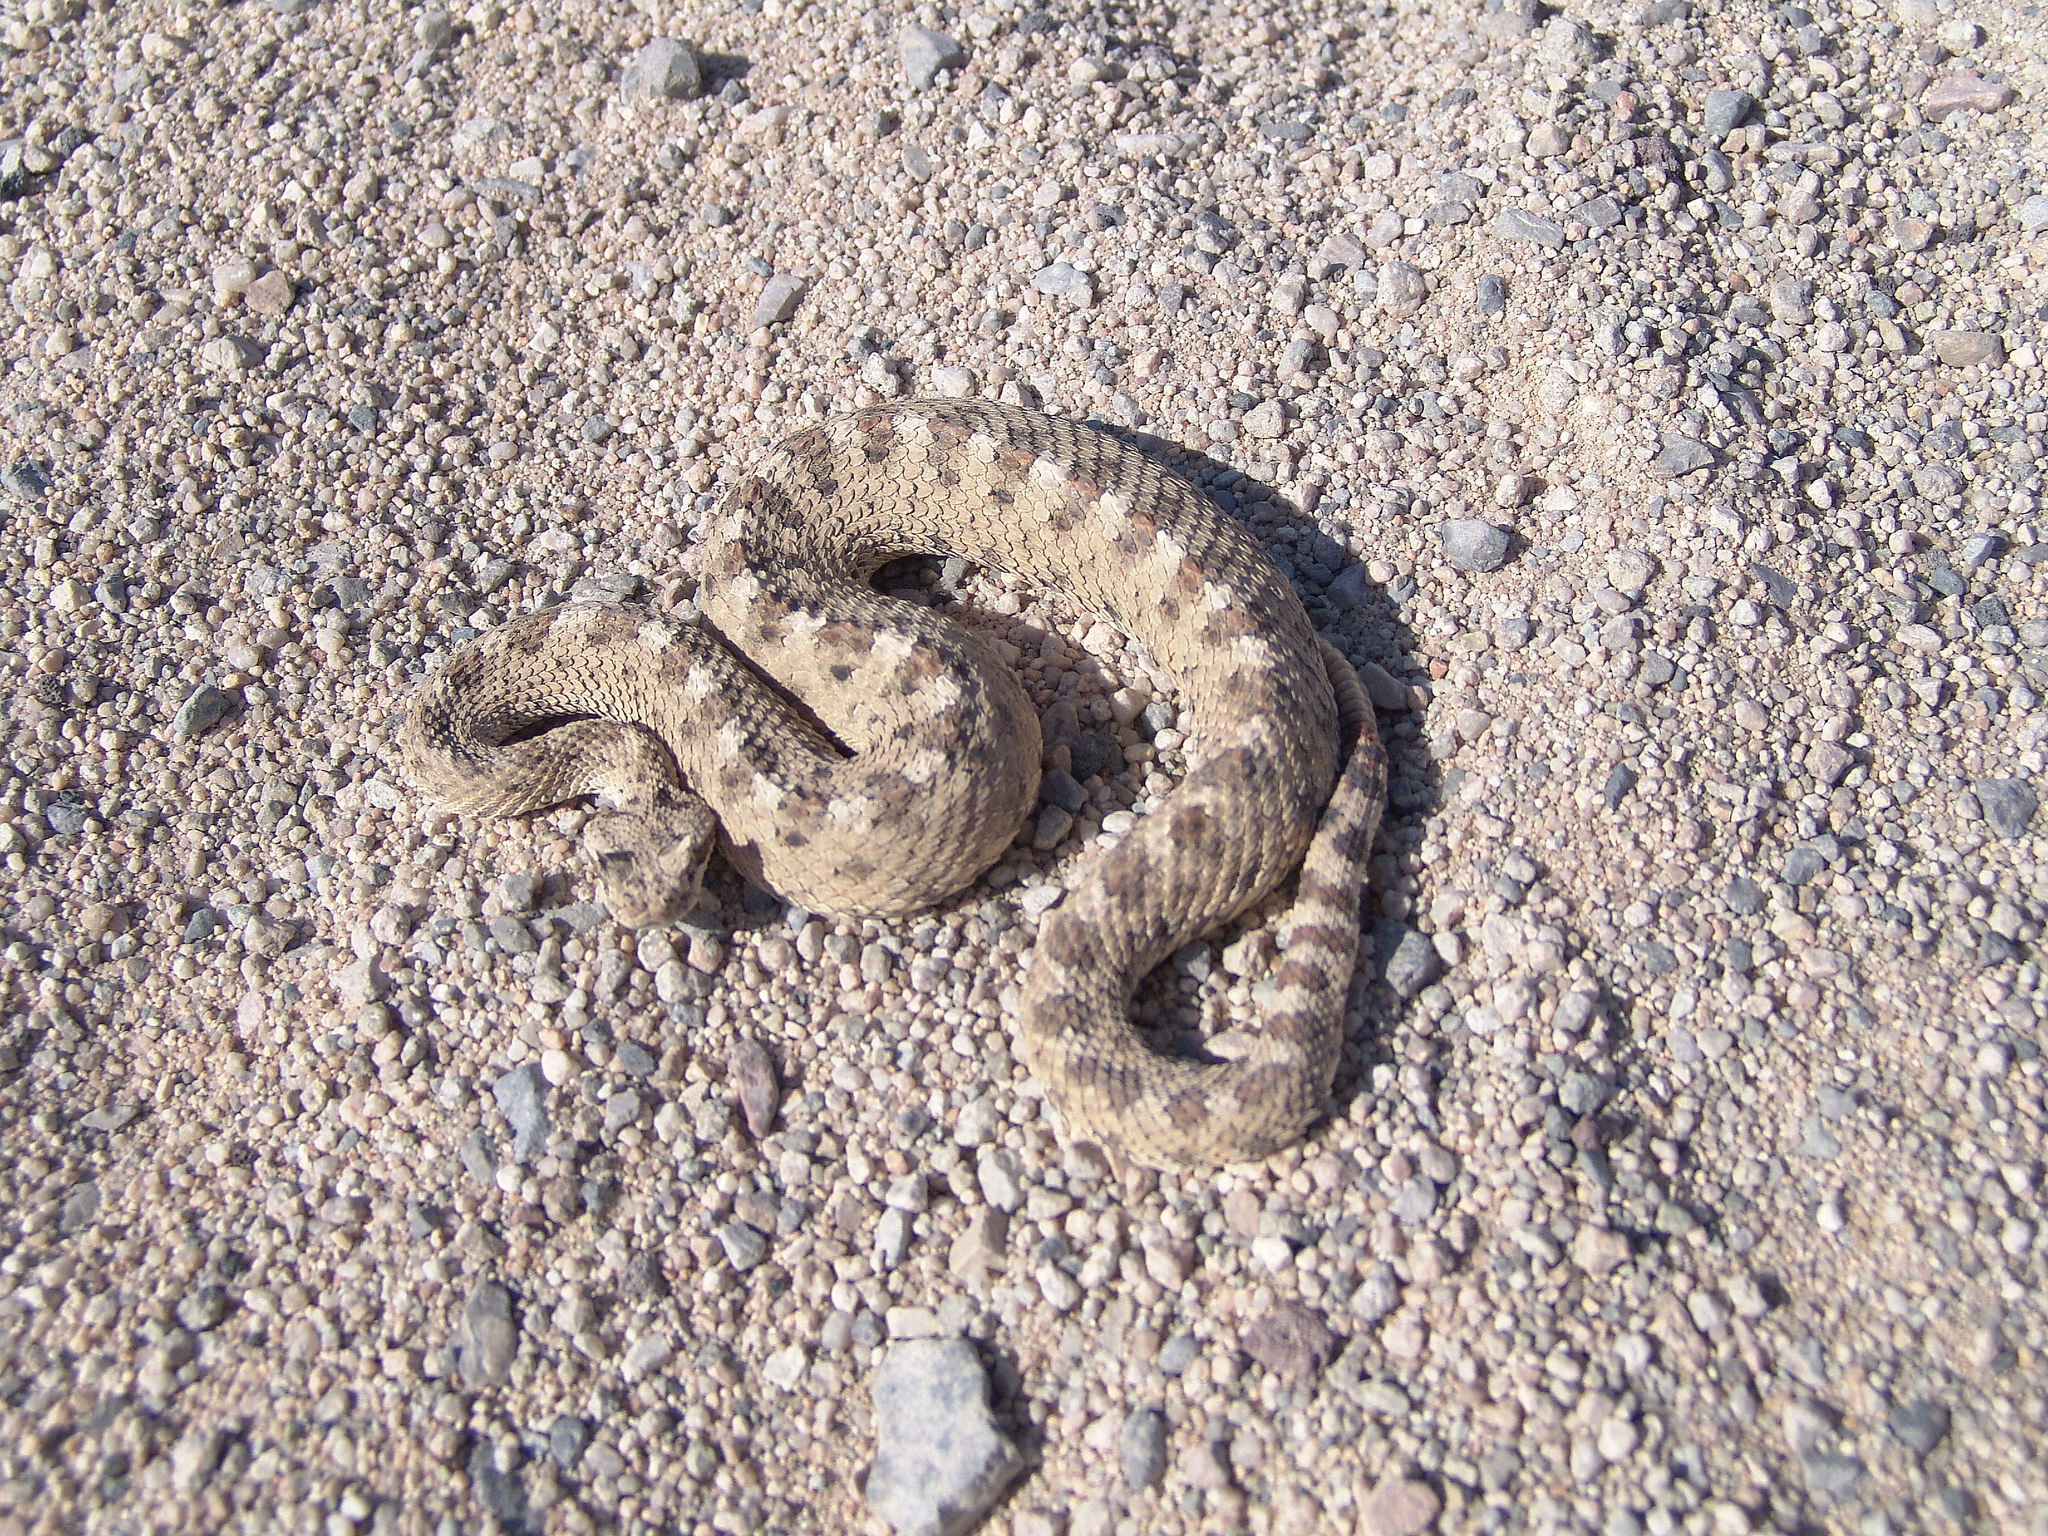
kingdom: Animalia
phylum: Chordata
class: Squamata
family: Viperidae
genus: Crotalus
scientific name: Crotalus cerastes
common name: Sidewinder
